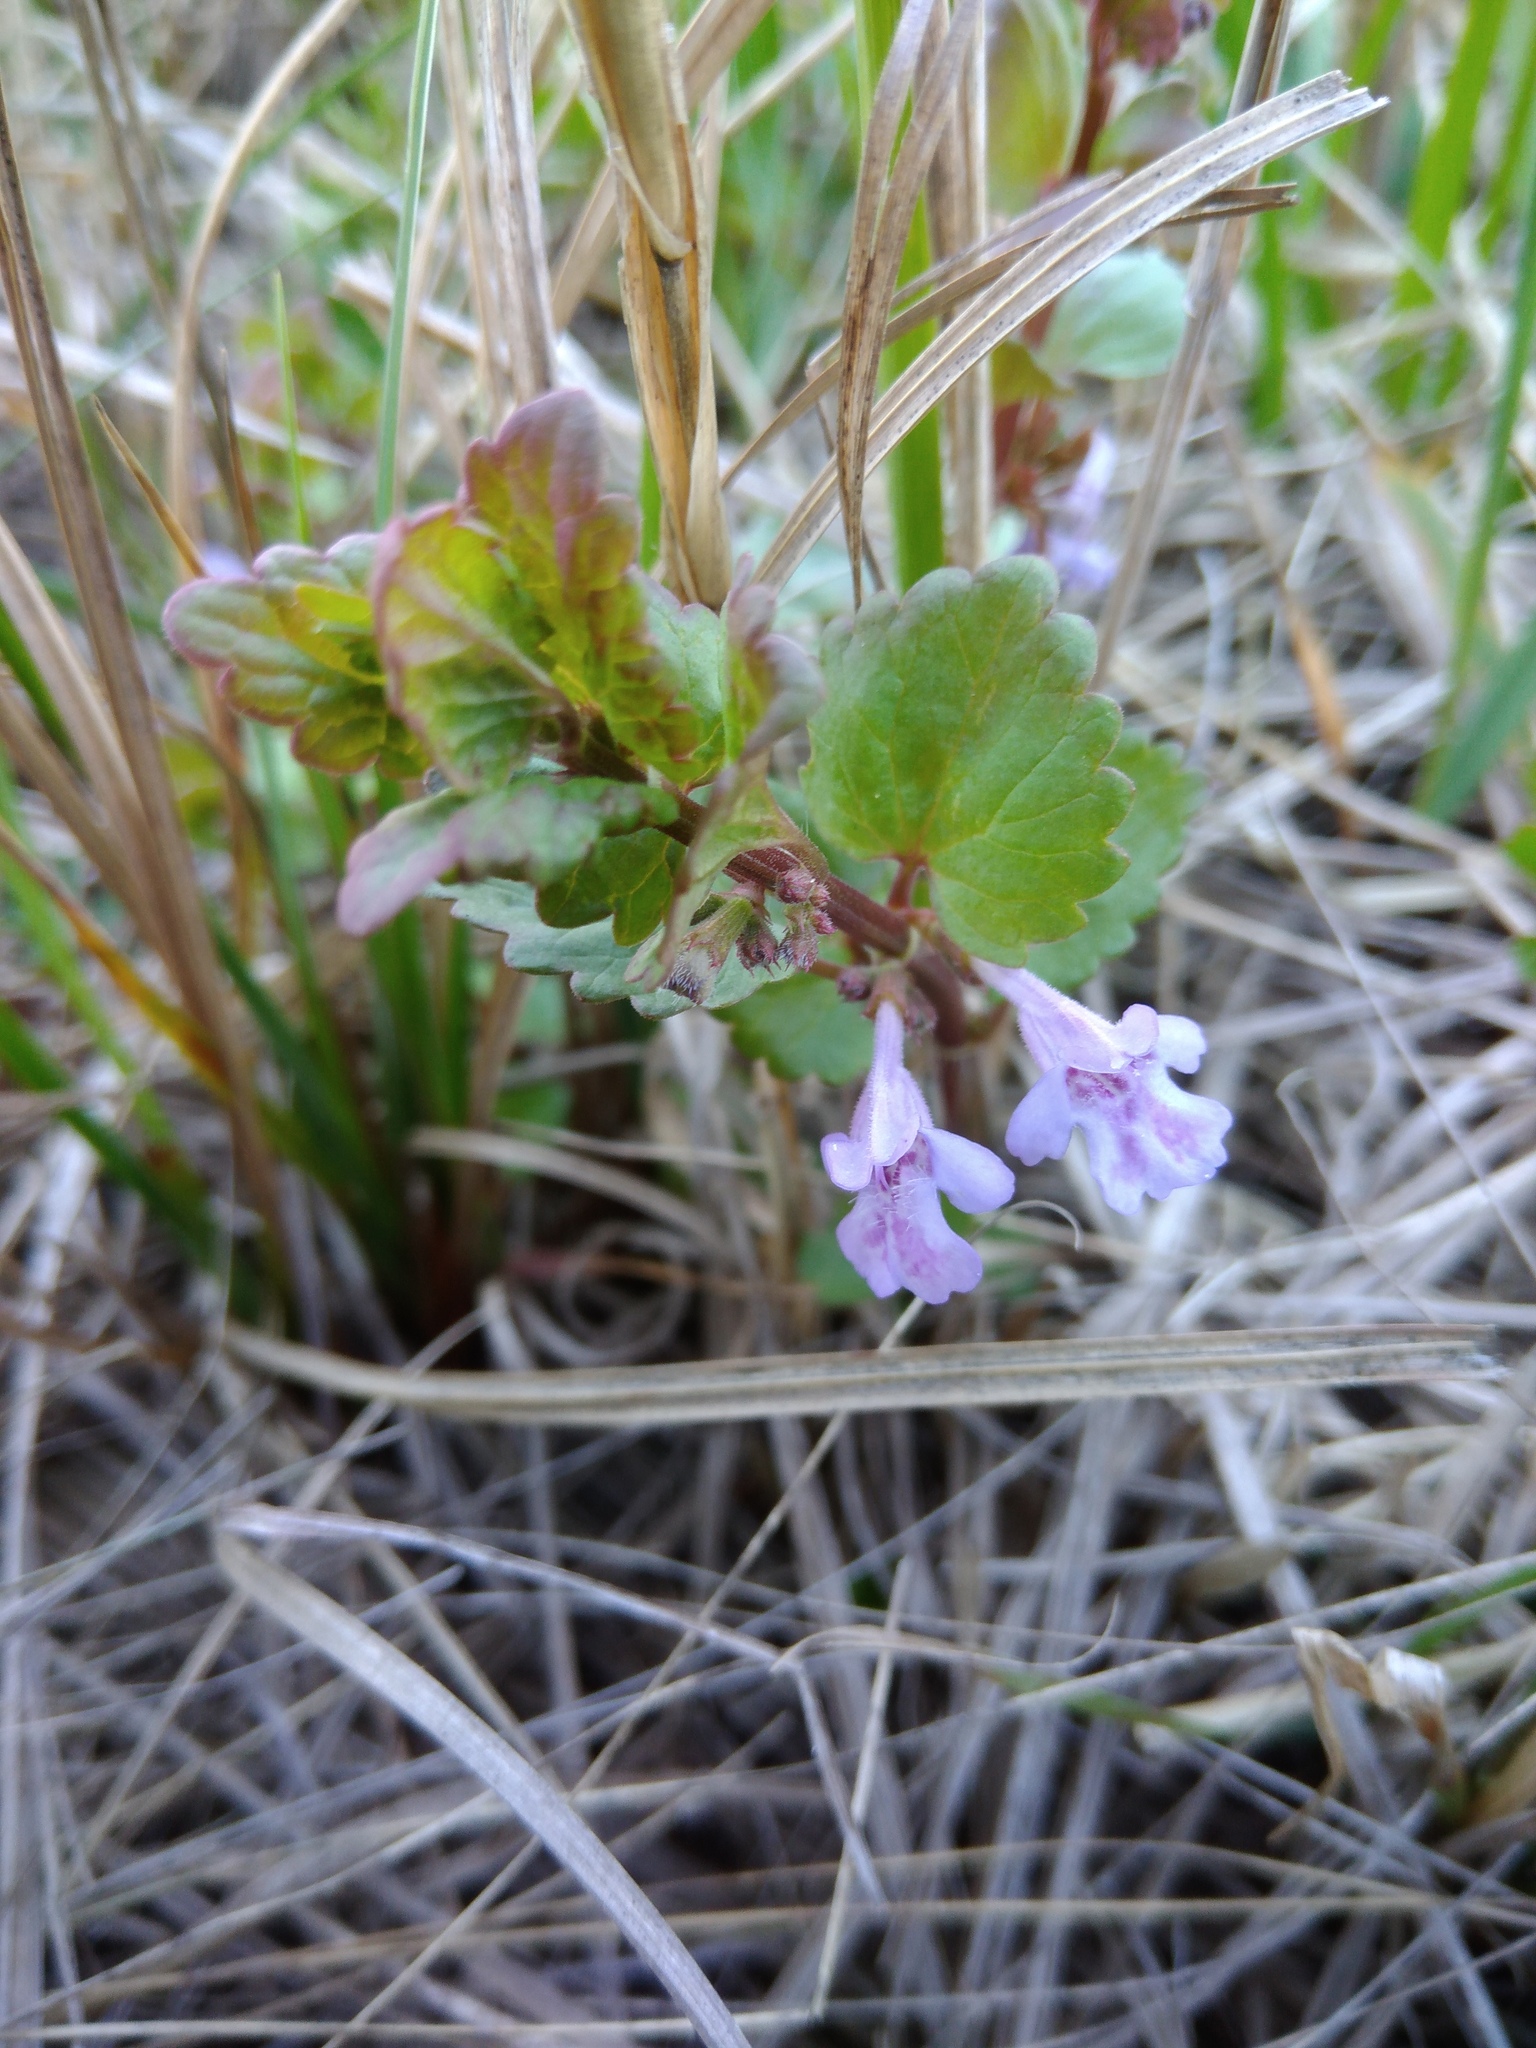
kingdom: Plantae
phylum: Tracheophyta
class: Magnoliopsida
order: Lamiales
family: Lamiaceae
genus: Glechoma
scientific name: Glechoma hederacea
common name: Ground ivy
